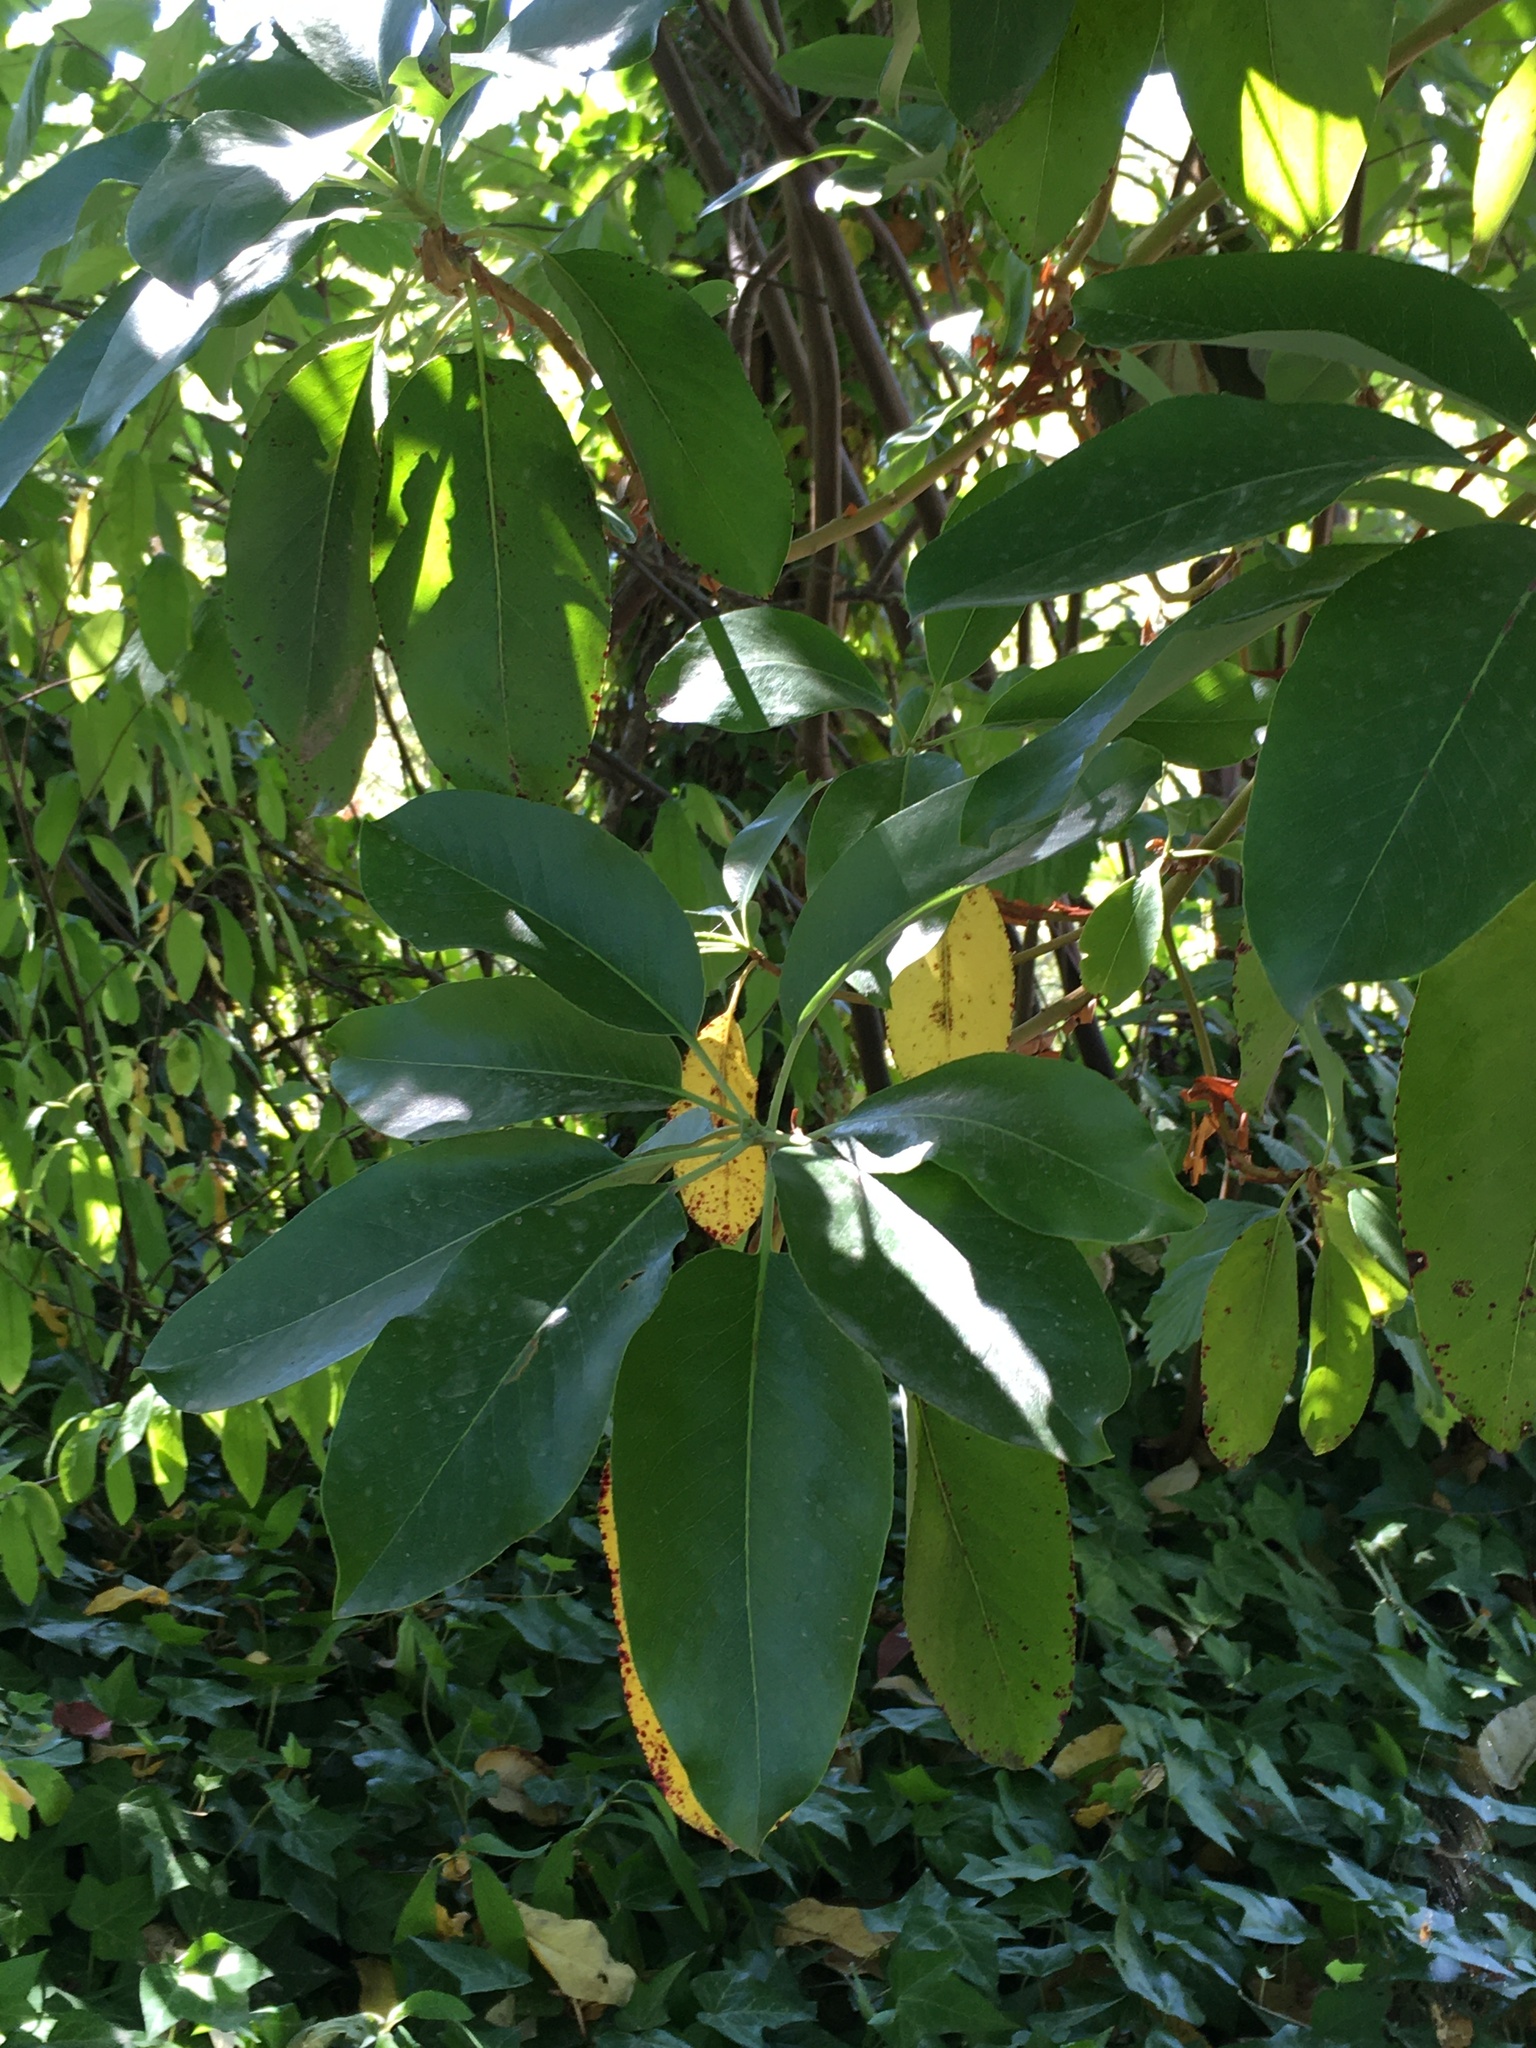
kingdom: Plantae
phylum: Tracheophyta
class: Magnoliopsida
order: Ericales
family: Ericaceae
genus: Arbutus
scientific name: Arbutus menziesii
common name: Pacific madrone
